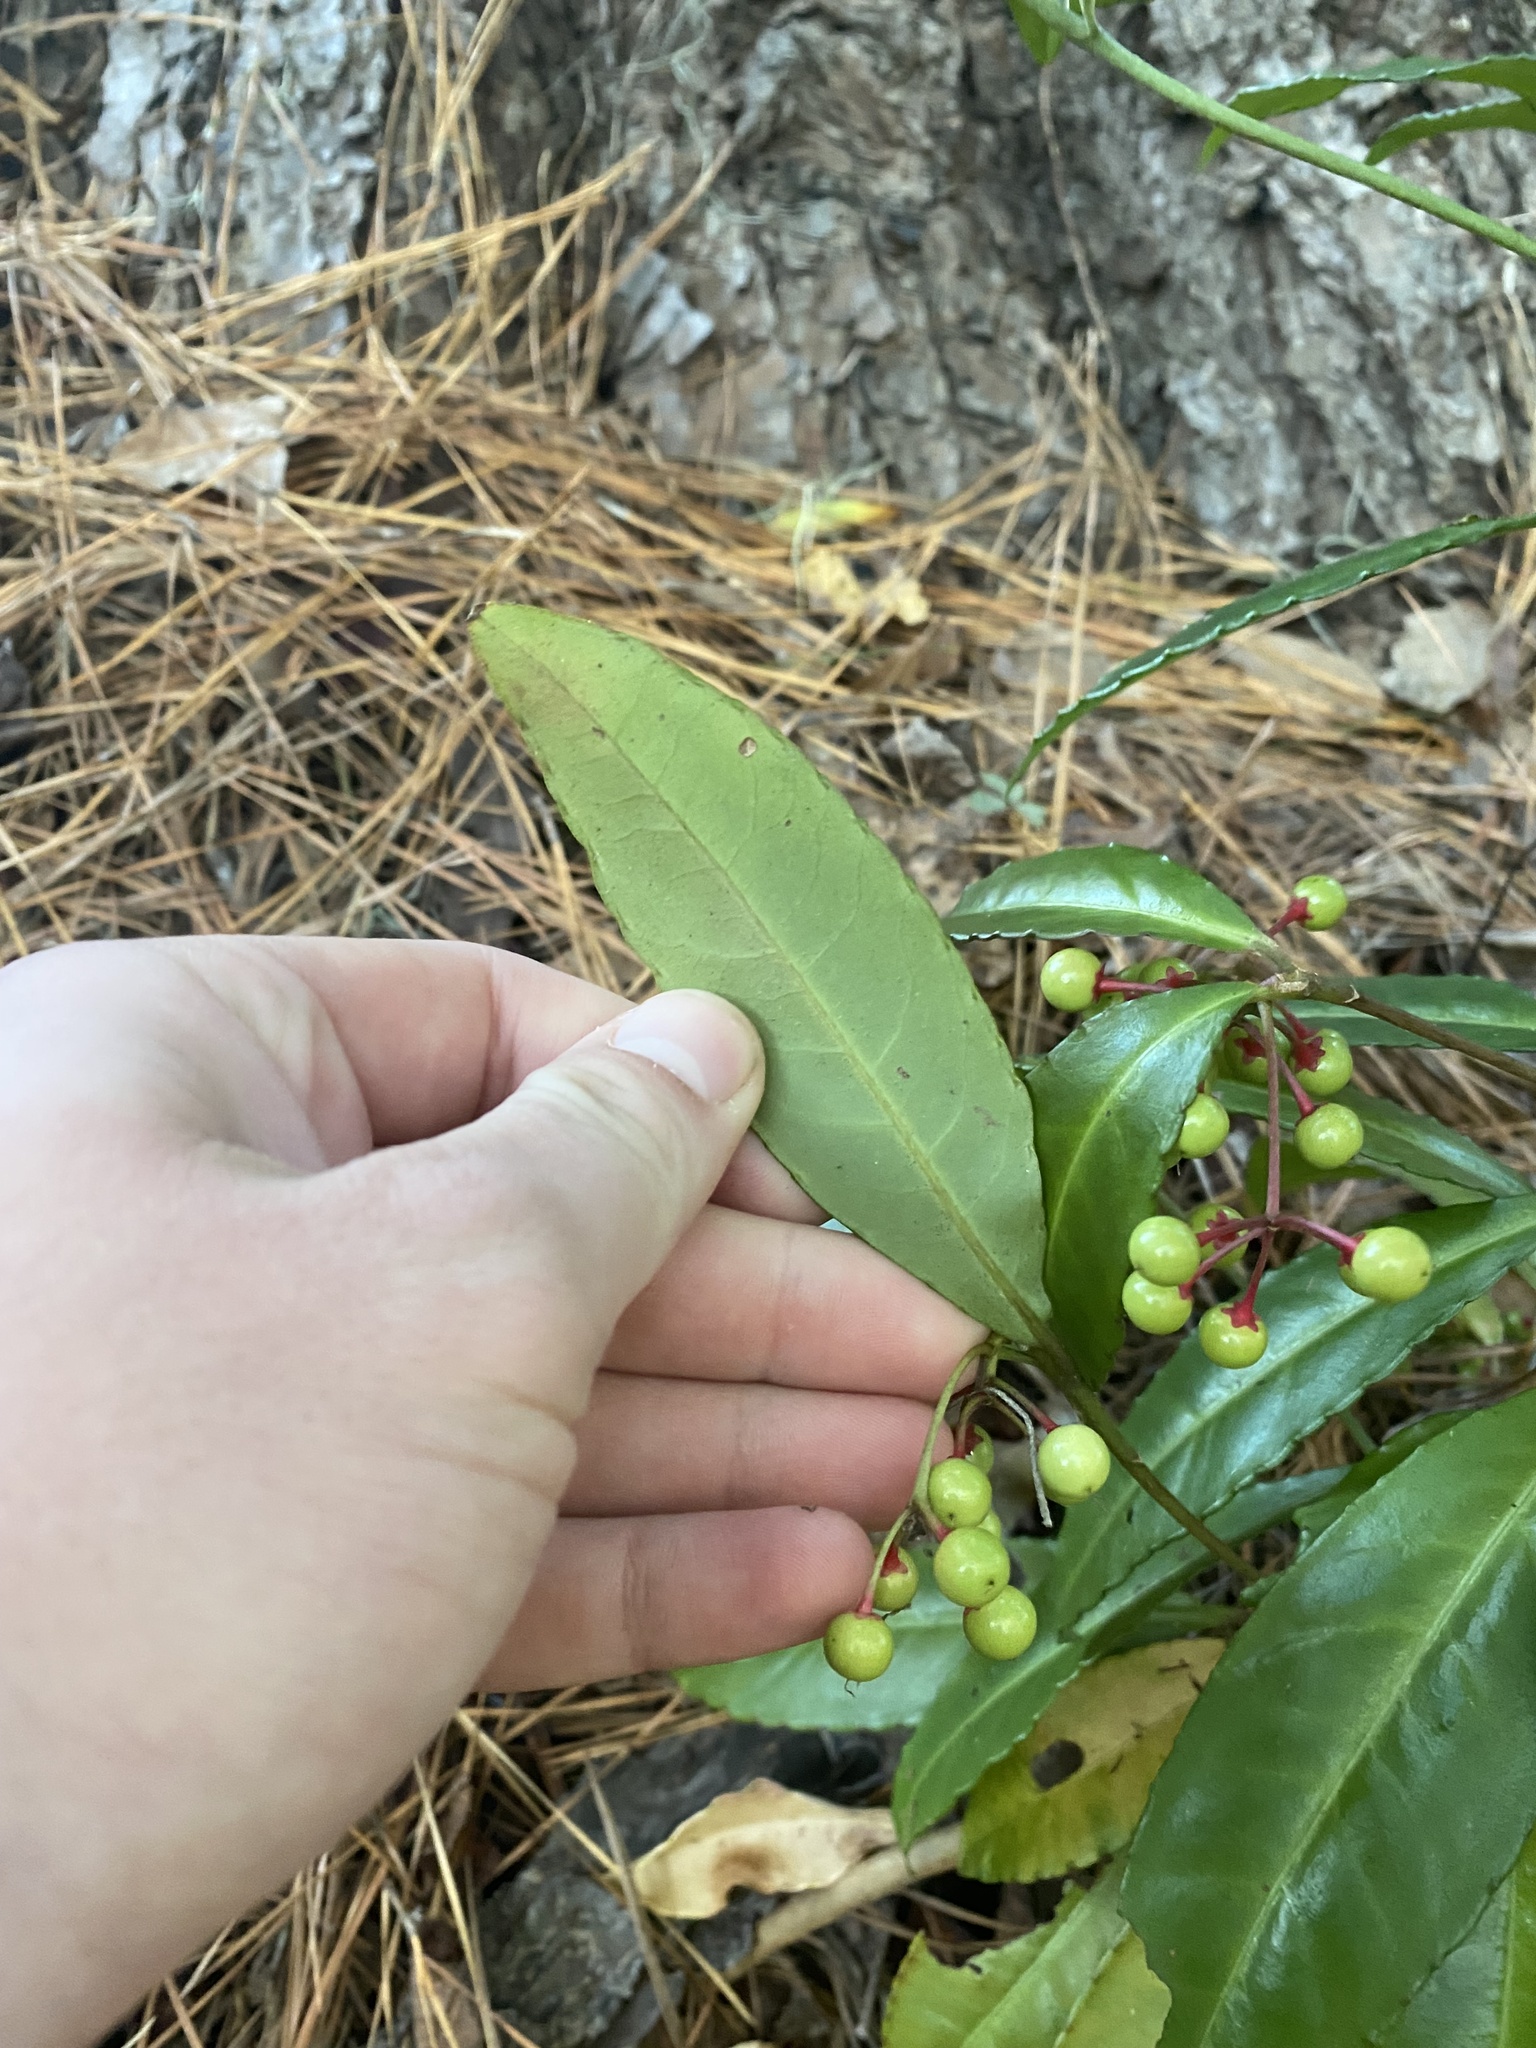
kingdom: Plantae
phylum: Tracheophyta
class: Magnoliopsida
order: Ericales
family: Primulaceae
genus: Ardisia
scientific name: Ardisia crenata
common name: Hen's eyes
